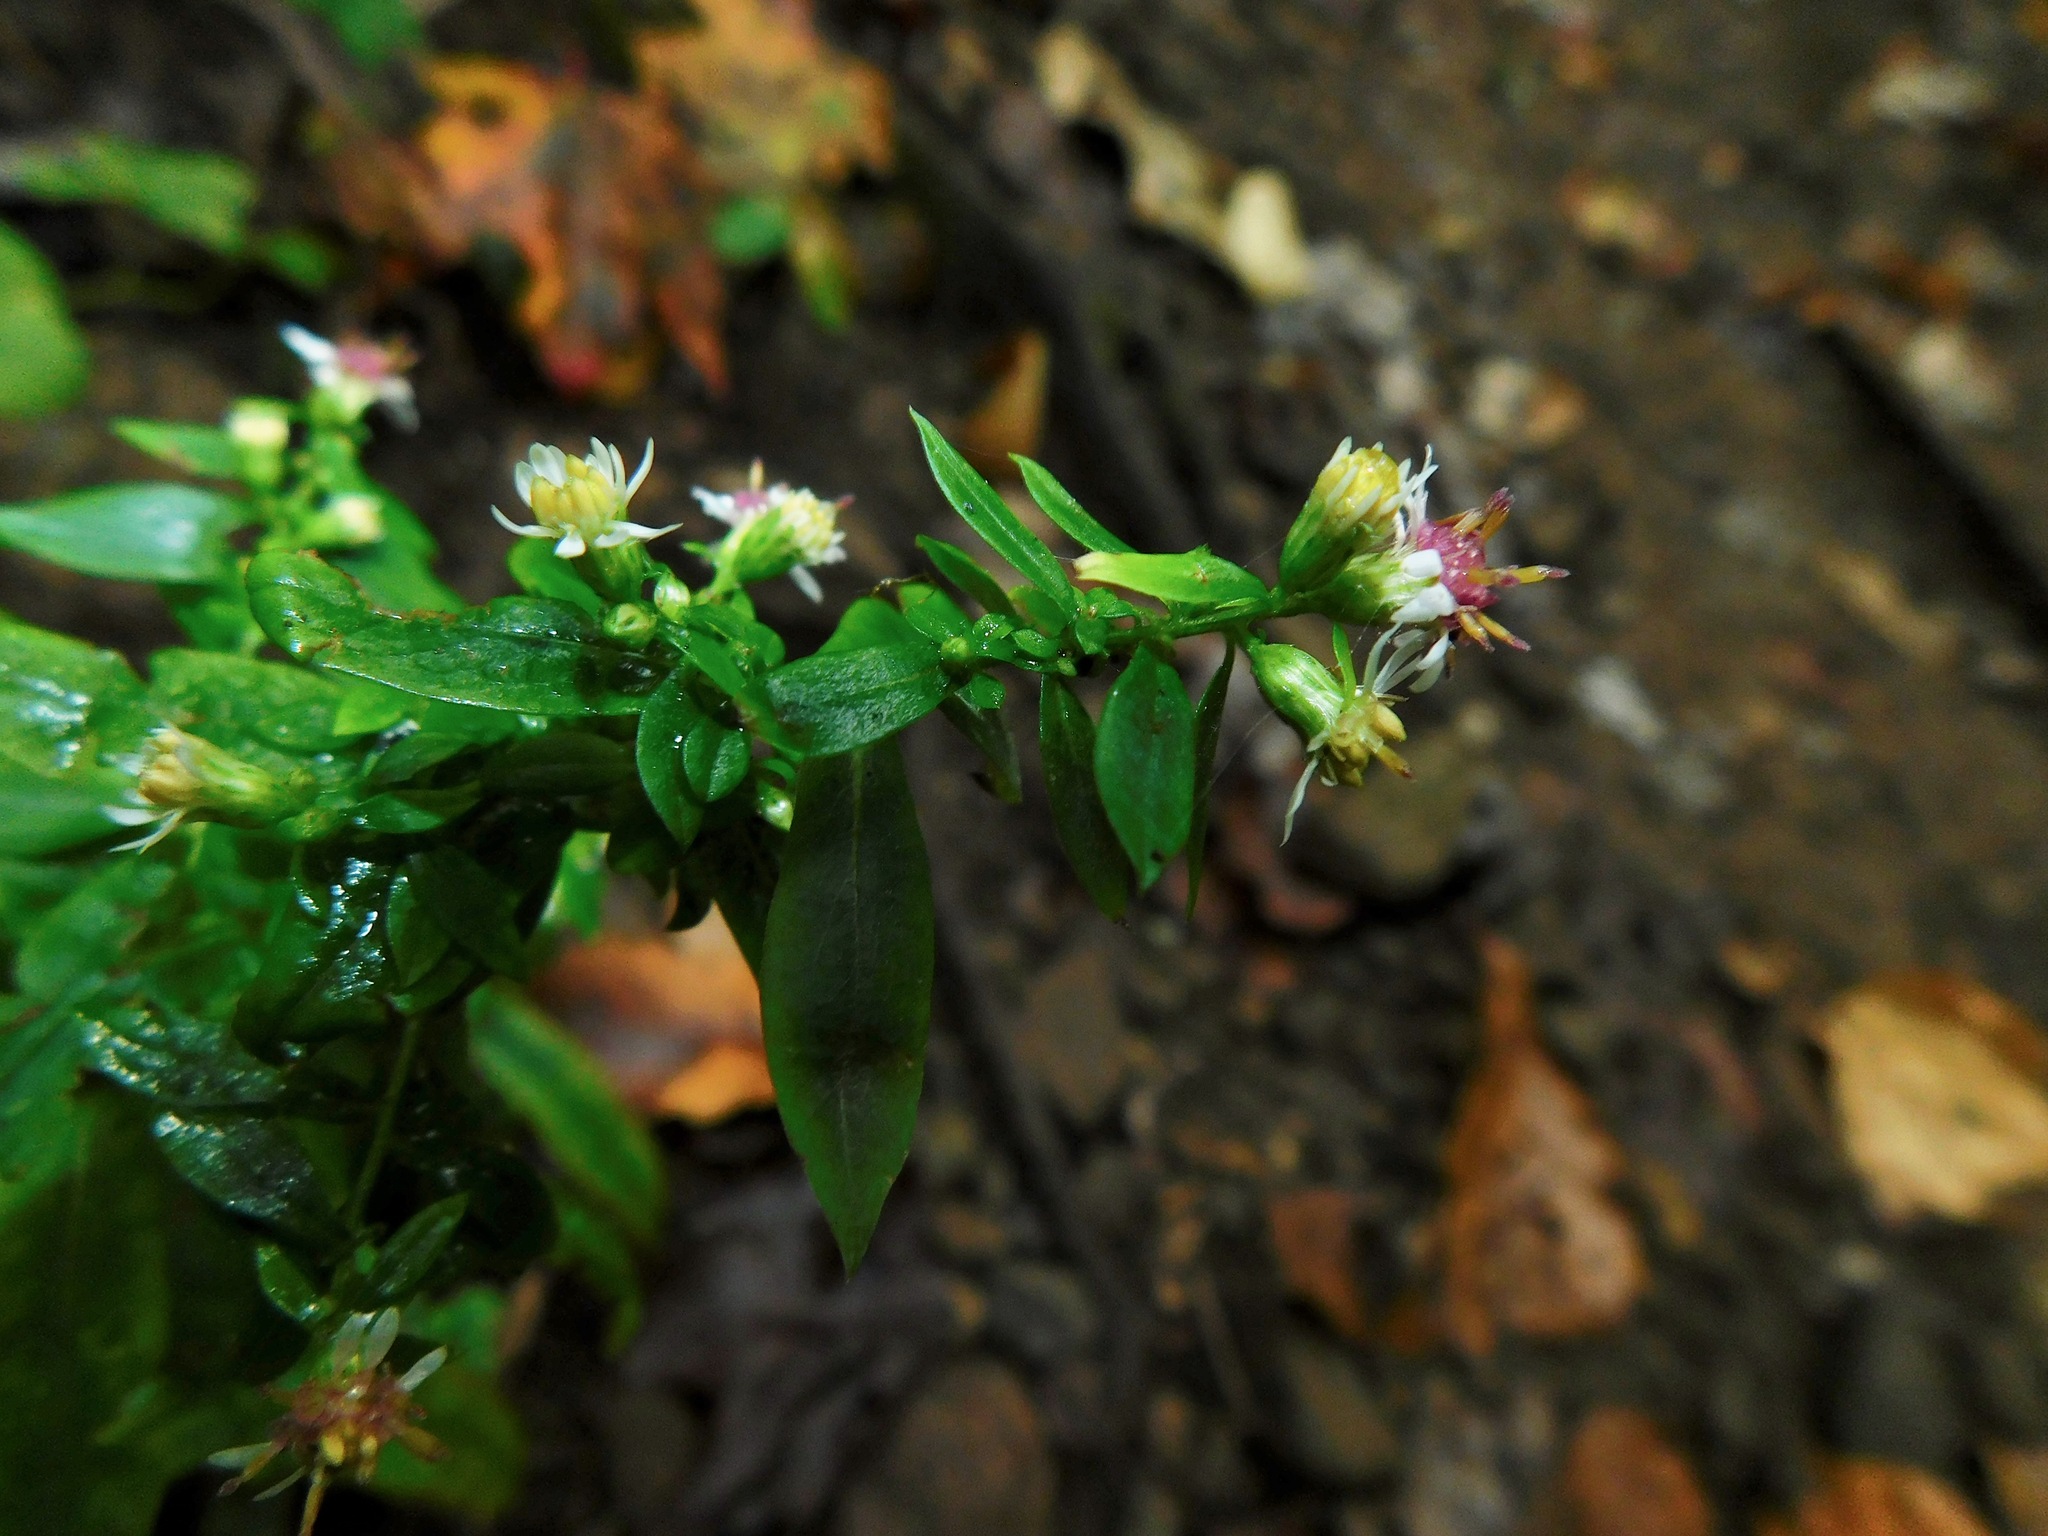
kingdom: Plantae
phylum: Tracheophyta
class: Magnoliopsida
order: Asterales
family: Asteraceae
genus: Symphyotrichum
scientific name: Symphyotrichum lateriflorum
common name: Calico aster
